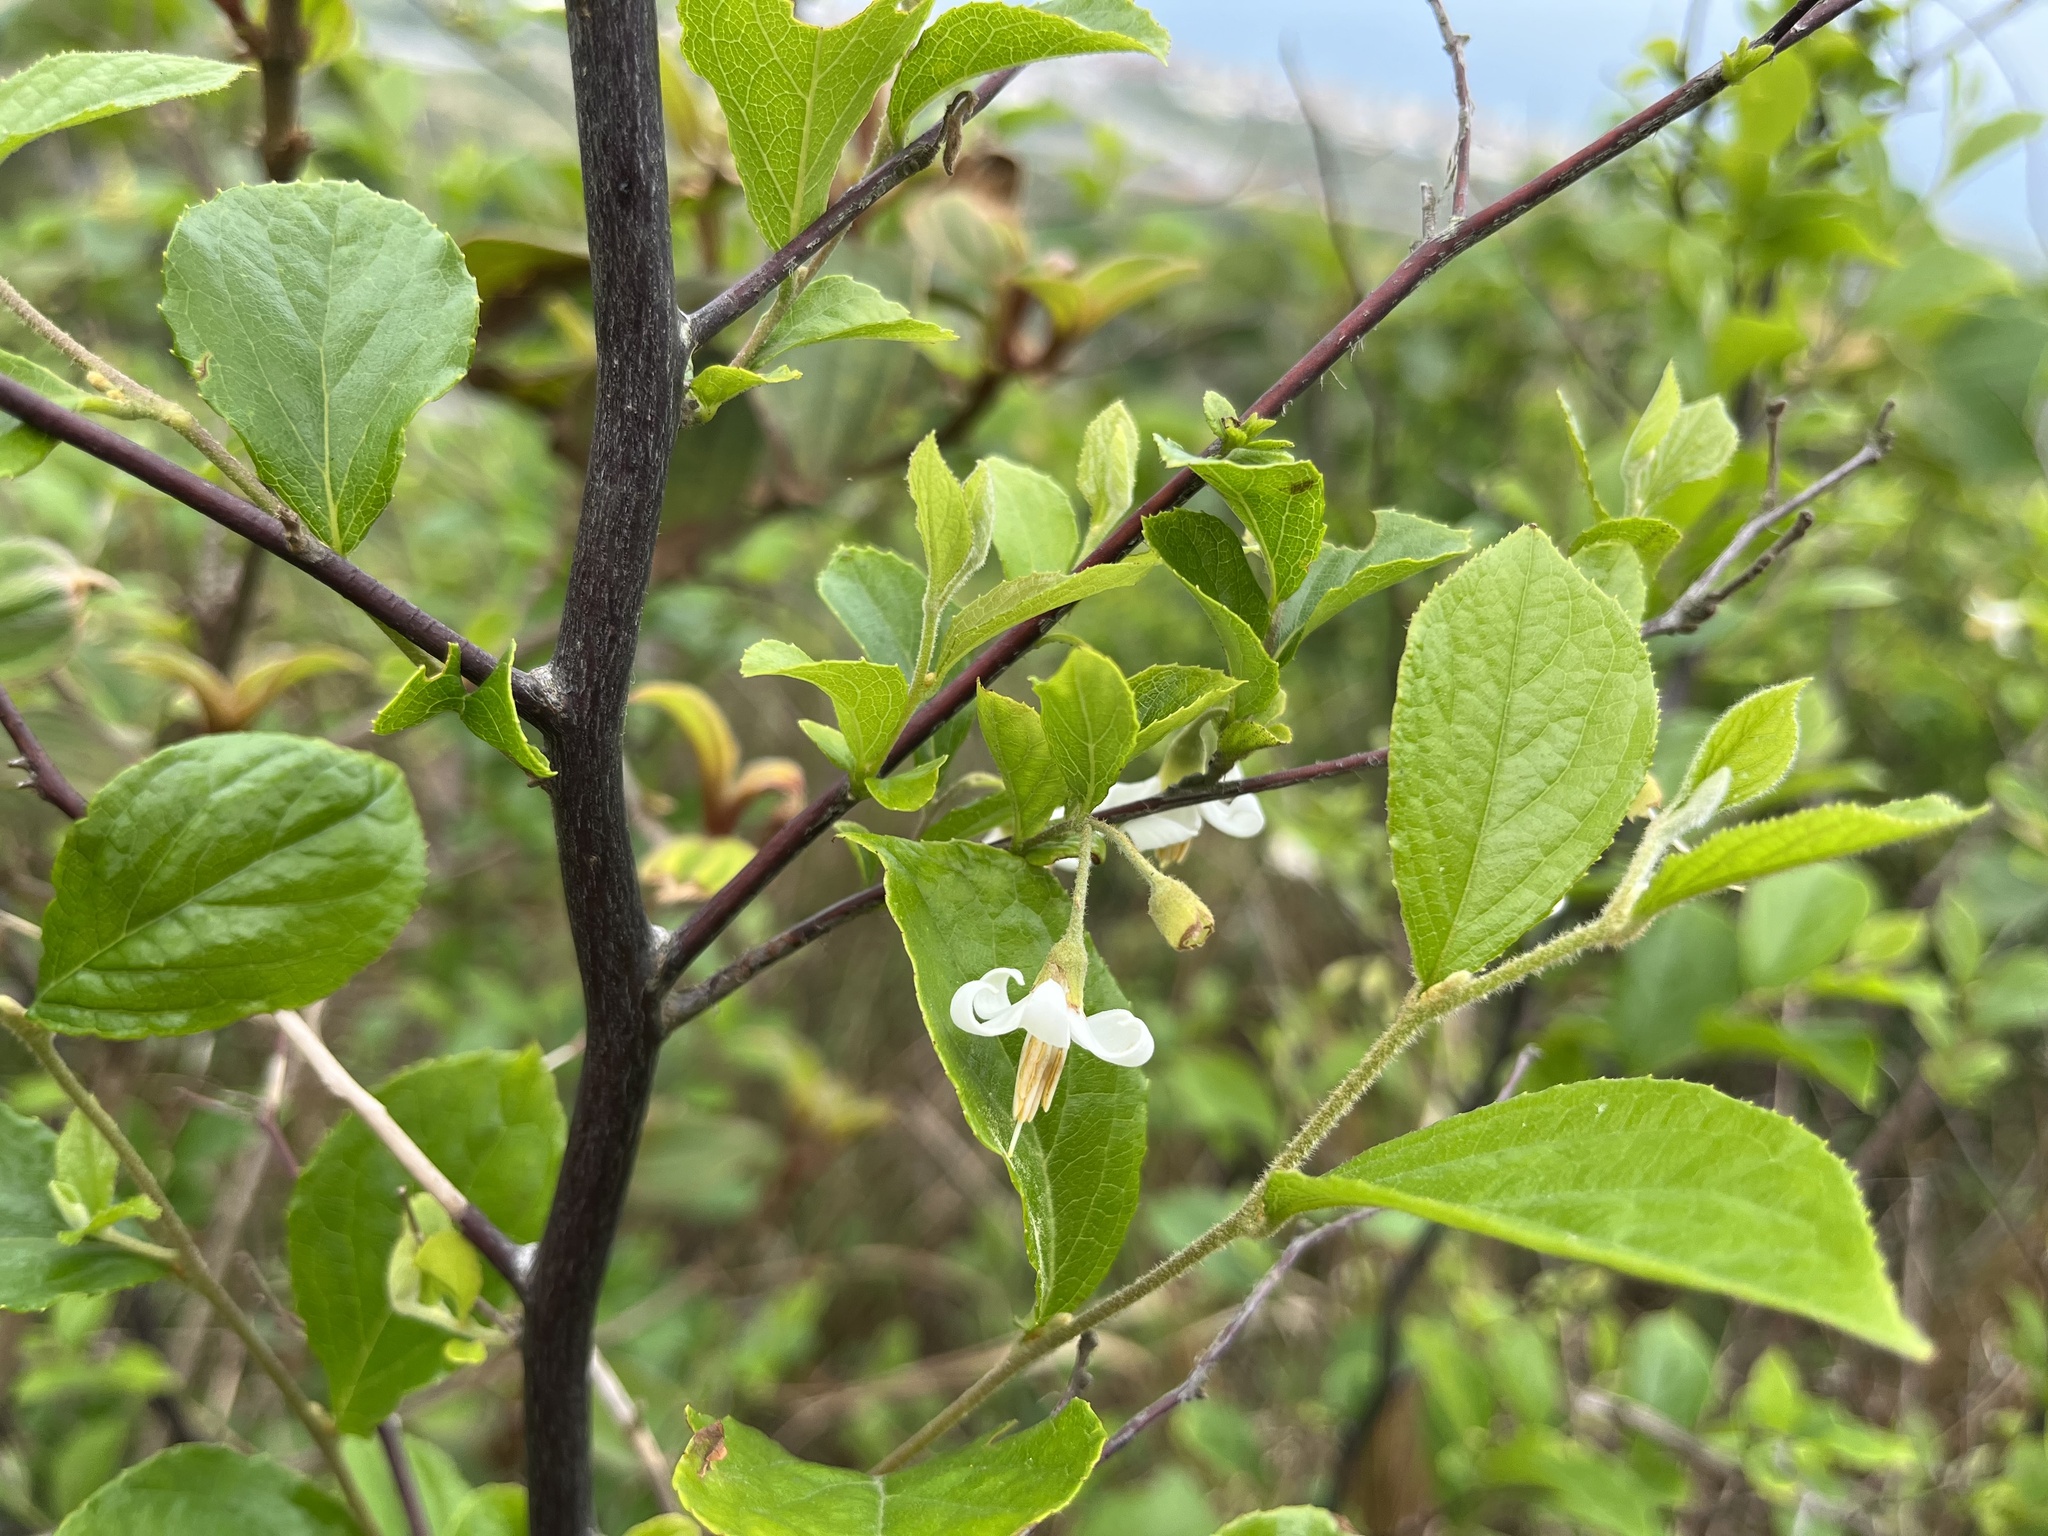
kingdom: Plantae
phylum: Tracheophyta
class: Magnoliopsida
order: Ericales
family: Styracaceae
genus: Styrax
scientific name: Styrax faberi
